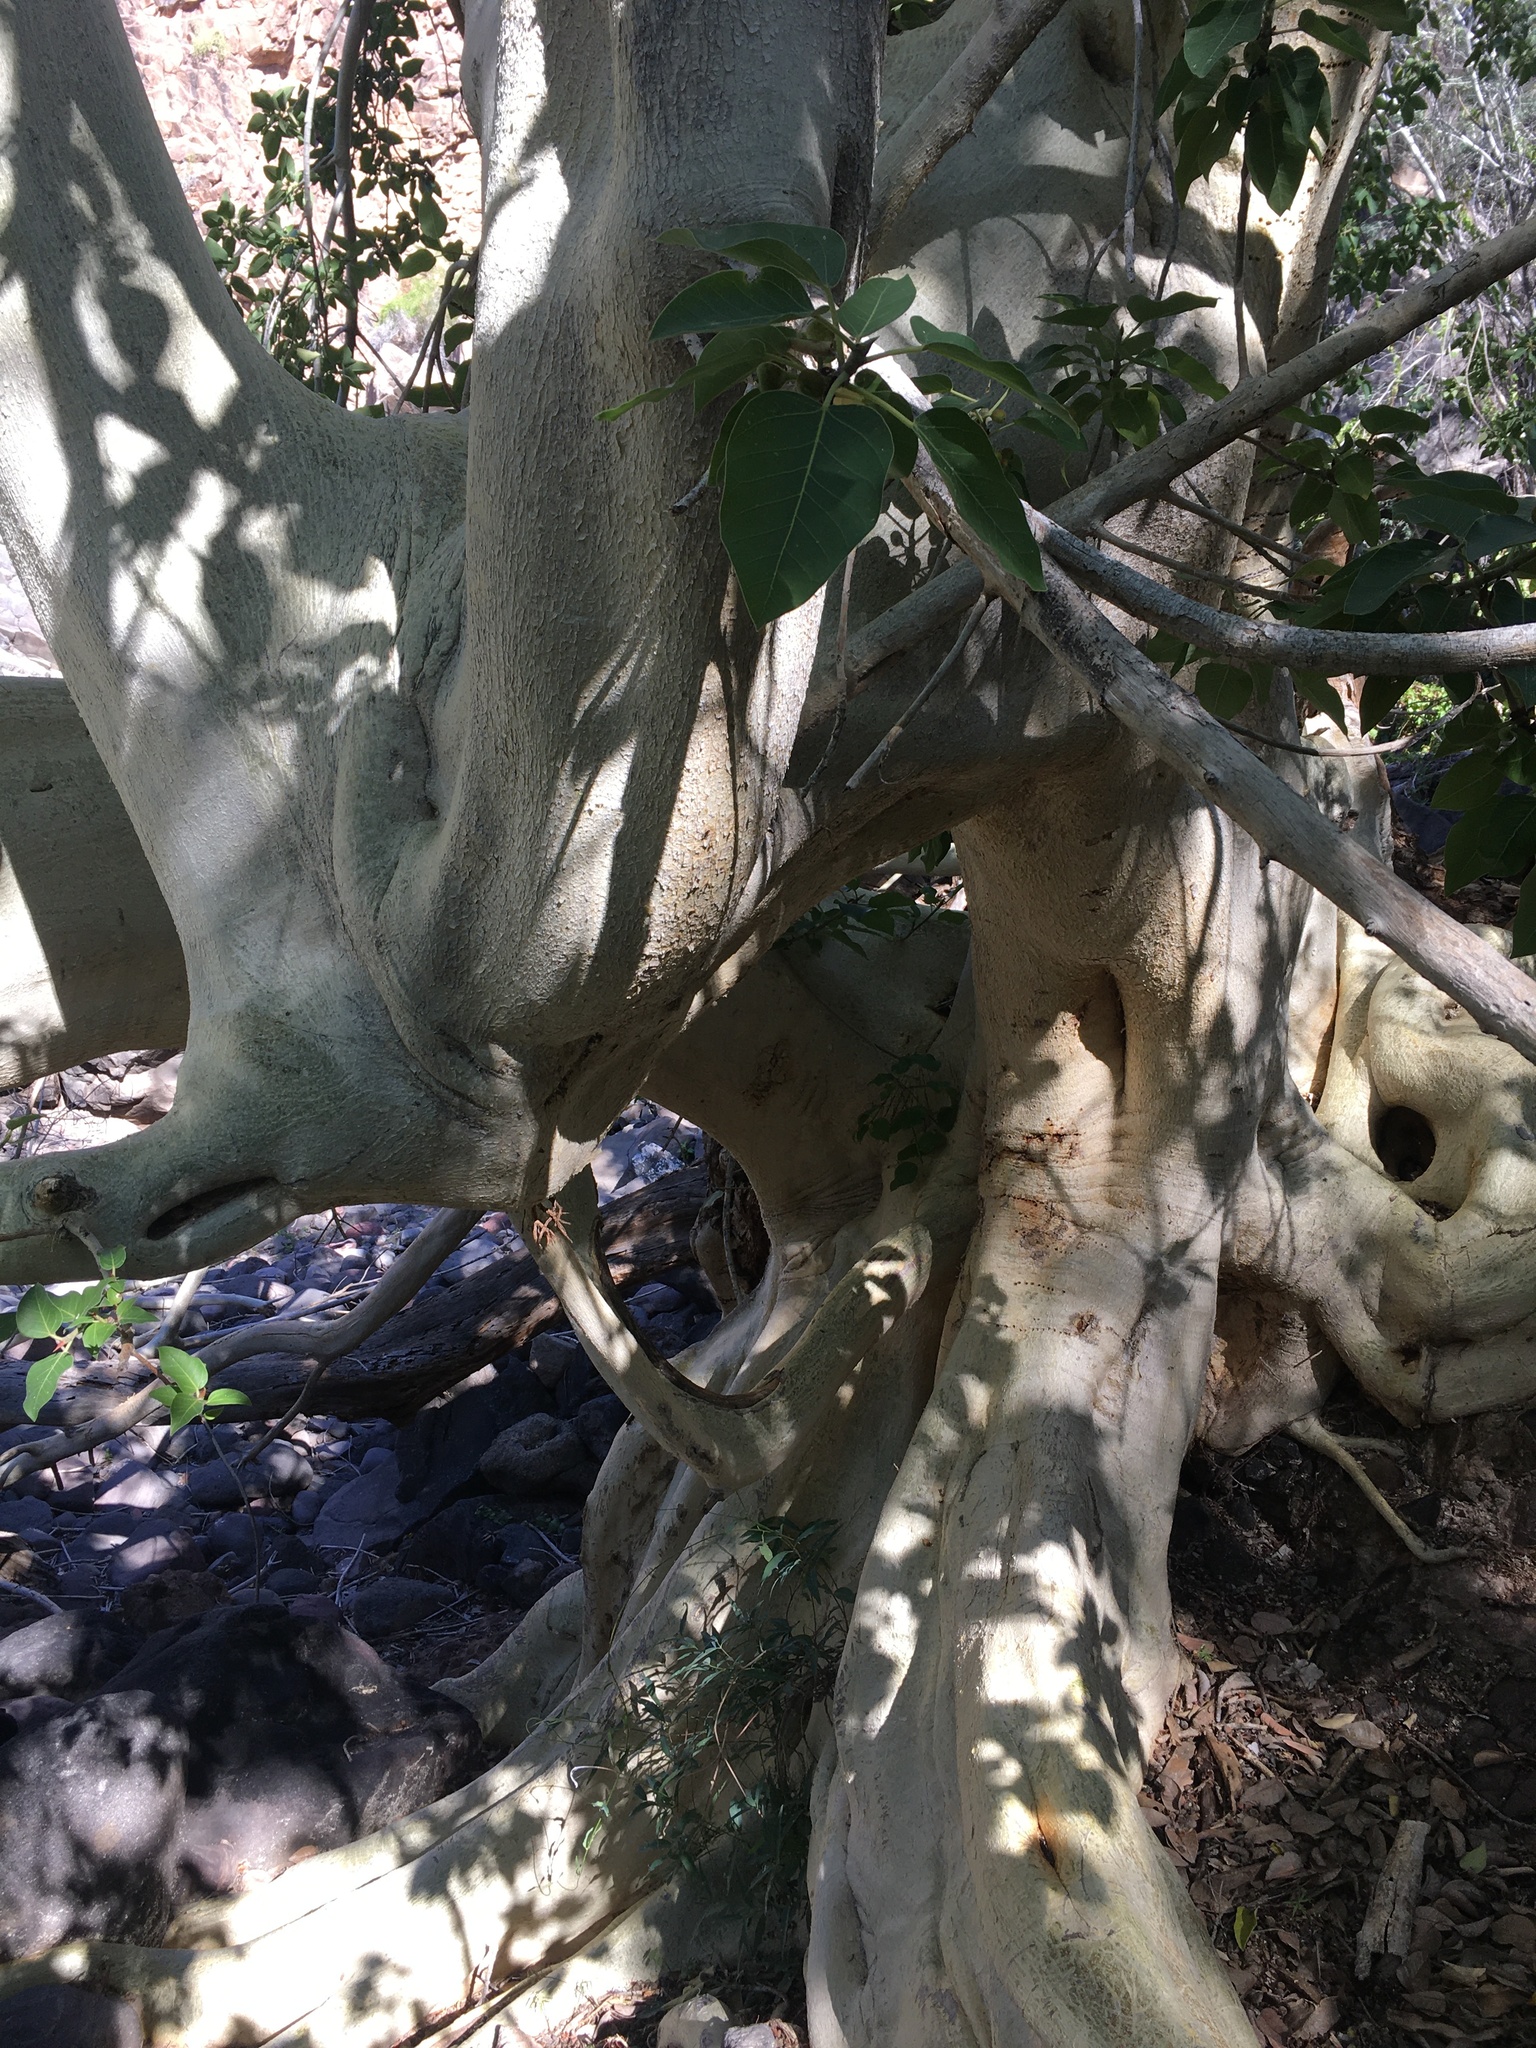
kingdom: Plantae
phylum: Tracheophyta
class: Magnoliopsida
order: Rosales
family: Moraceae
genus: Ficus
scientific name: Ficus petiolaris
